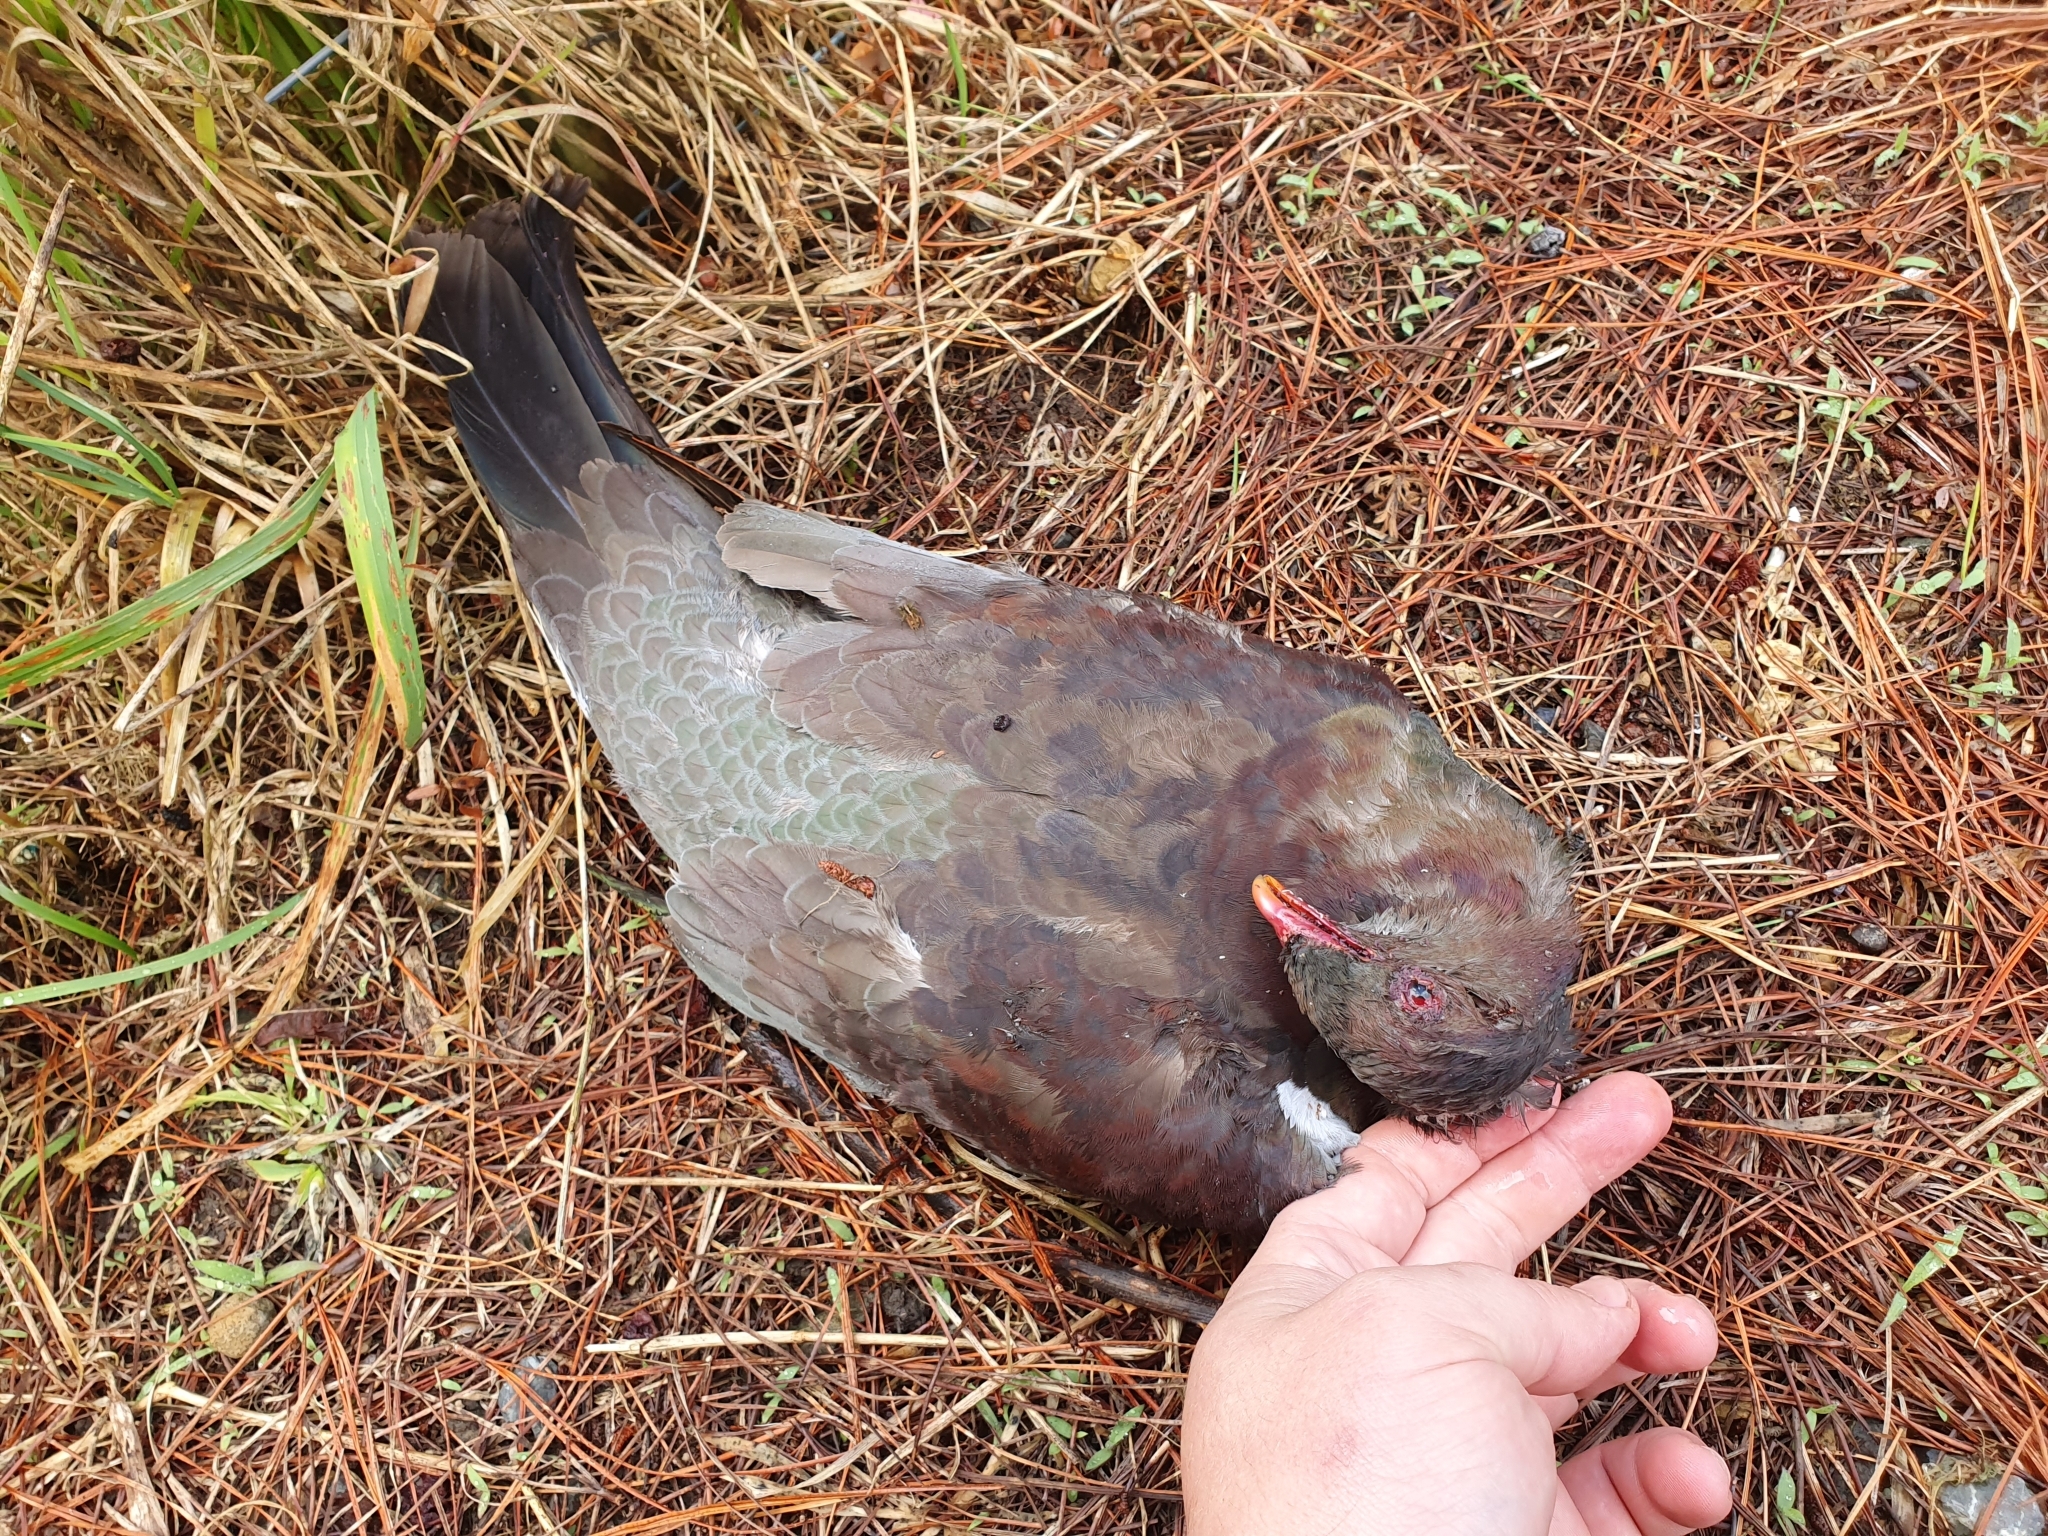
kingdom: Animalia
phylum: Chordata
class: Aves
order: Columbiformes
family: Columbidae
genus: Hemiphaga
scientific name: Hemiphaga novaeseelandiae
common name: New zealand pigeon
